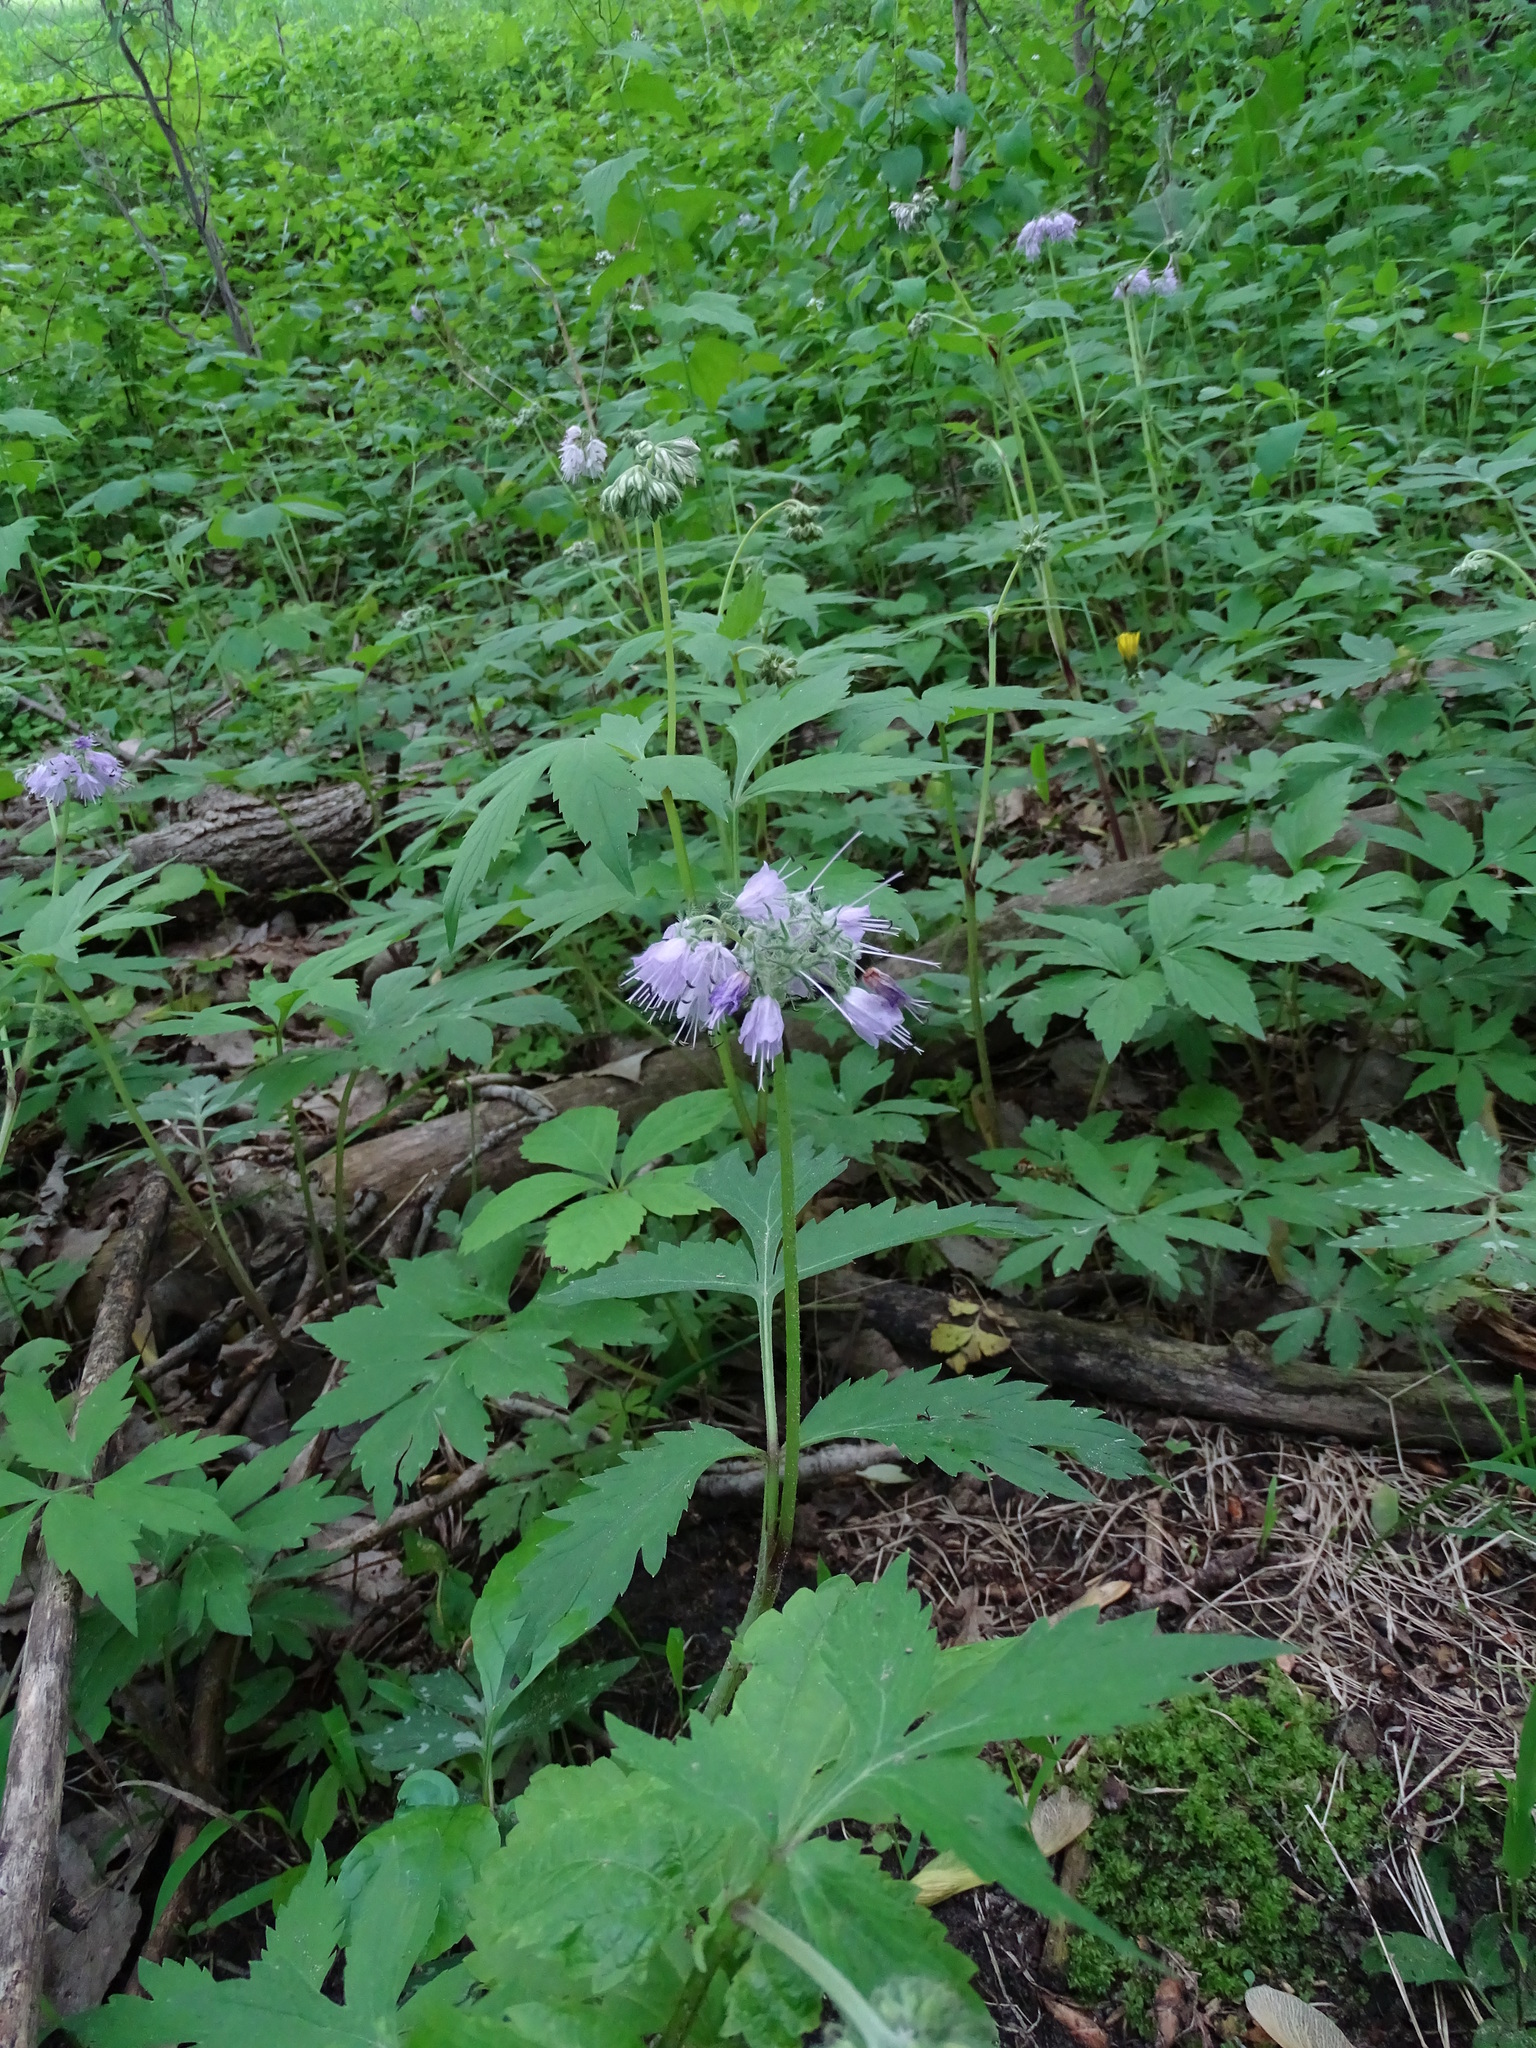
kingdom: Plantae
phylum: Tracheophyta
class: Magnoliopsida
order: Boraginales
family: Hydrophyllaceae
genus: Hydrophyllum
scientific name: Hydrophyllum virginianum
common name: Virginia waterleaf
